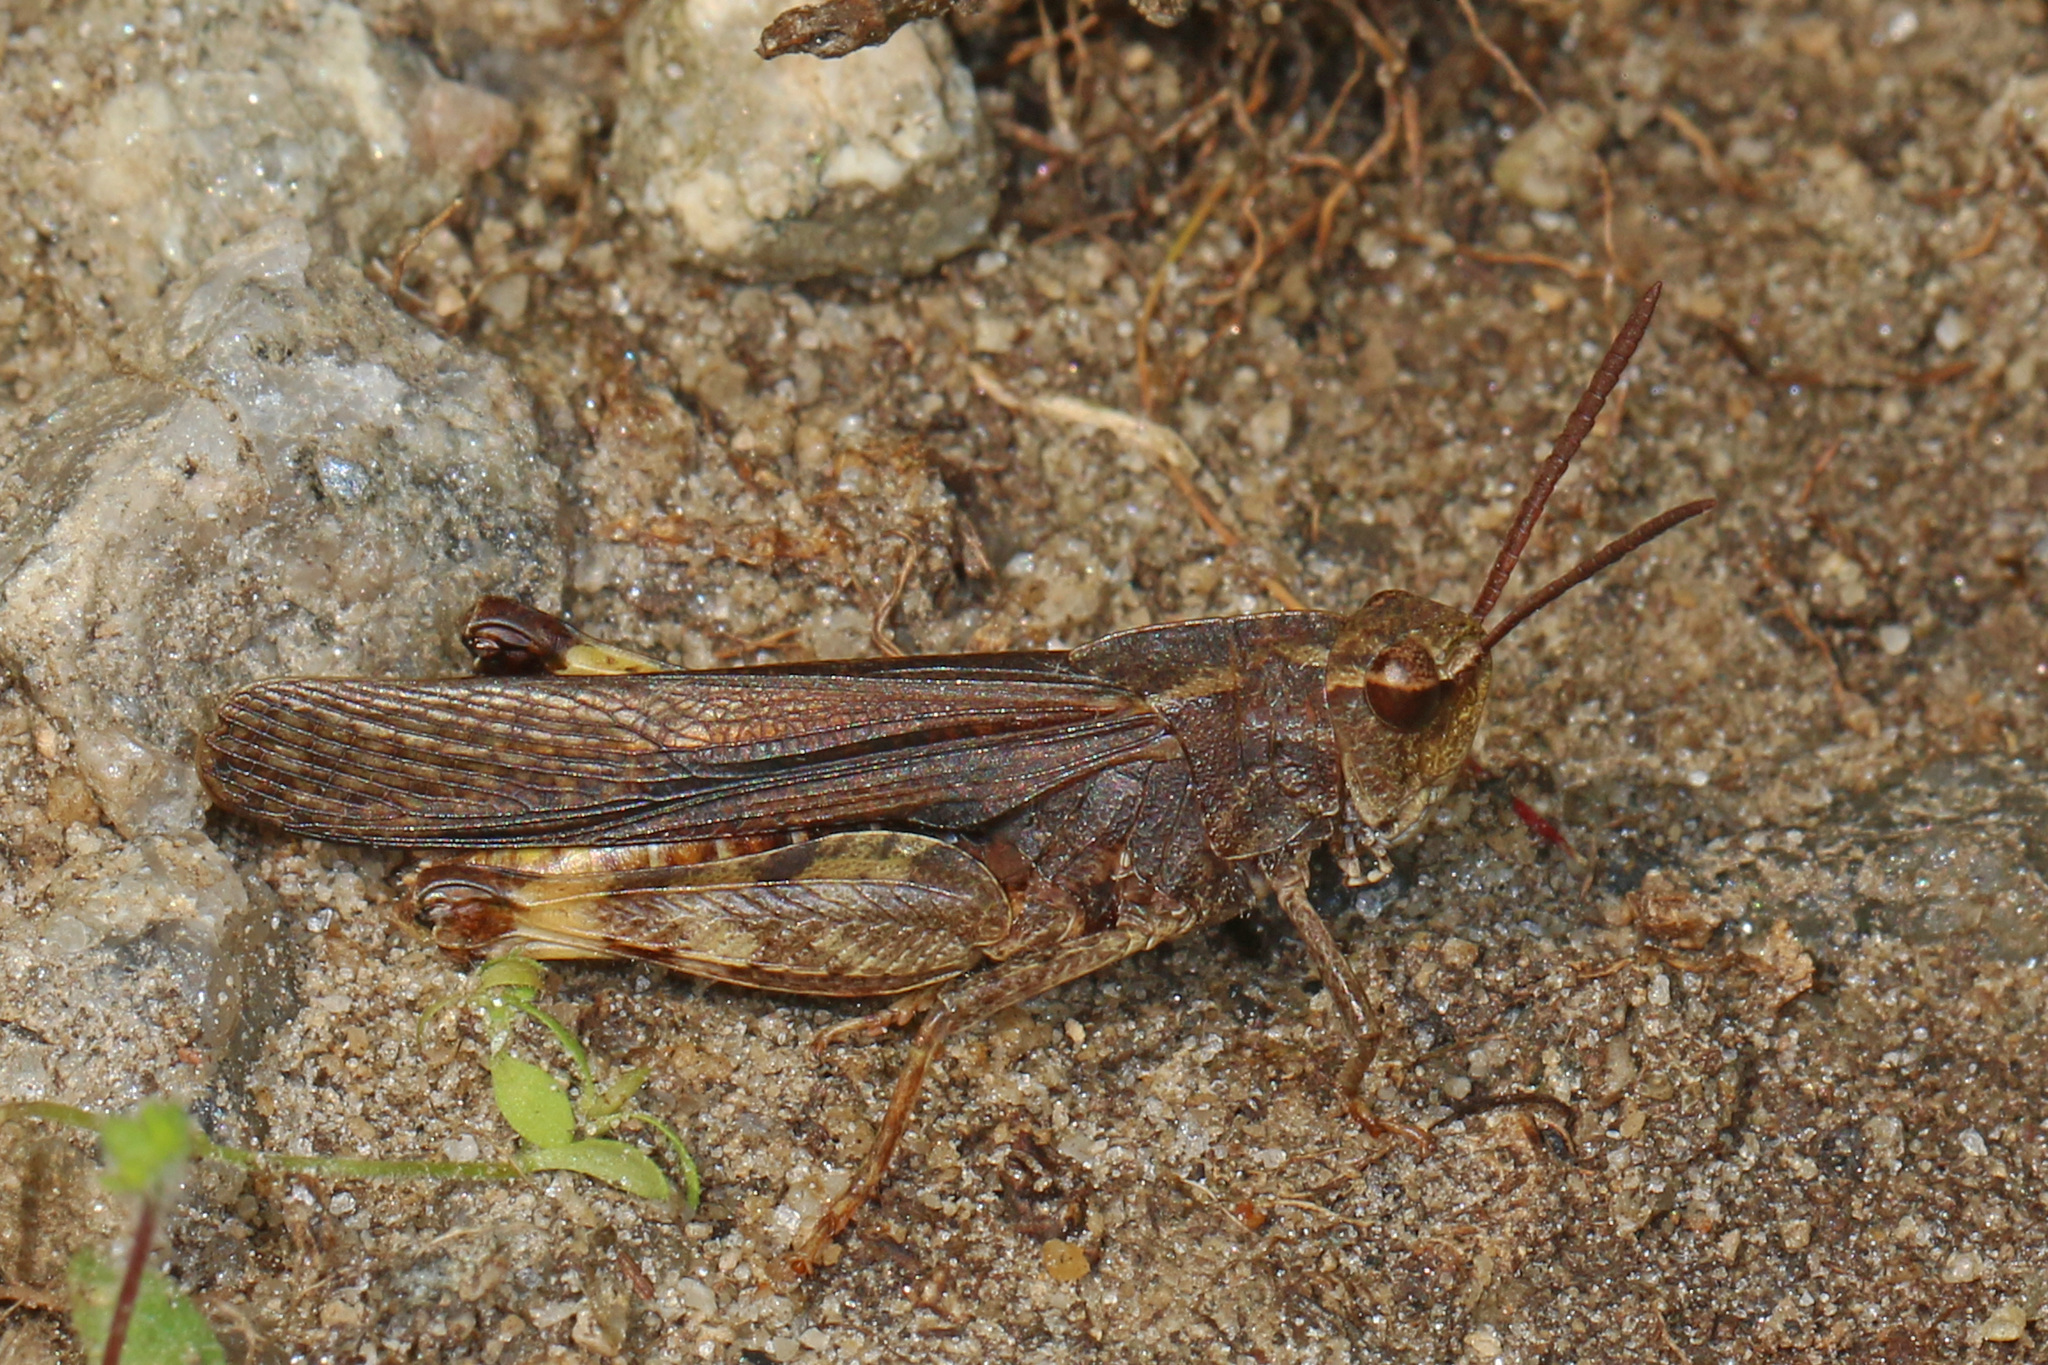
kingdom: Animalia
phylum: Arthropoda
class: Insecta
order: Orthoptera
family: Acrididae
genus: Chortophaga
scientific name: Chortophaga viridifasciata
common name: Green-striped grasshopper
